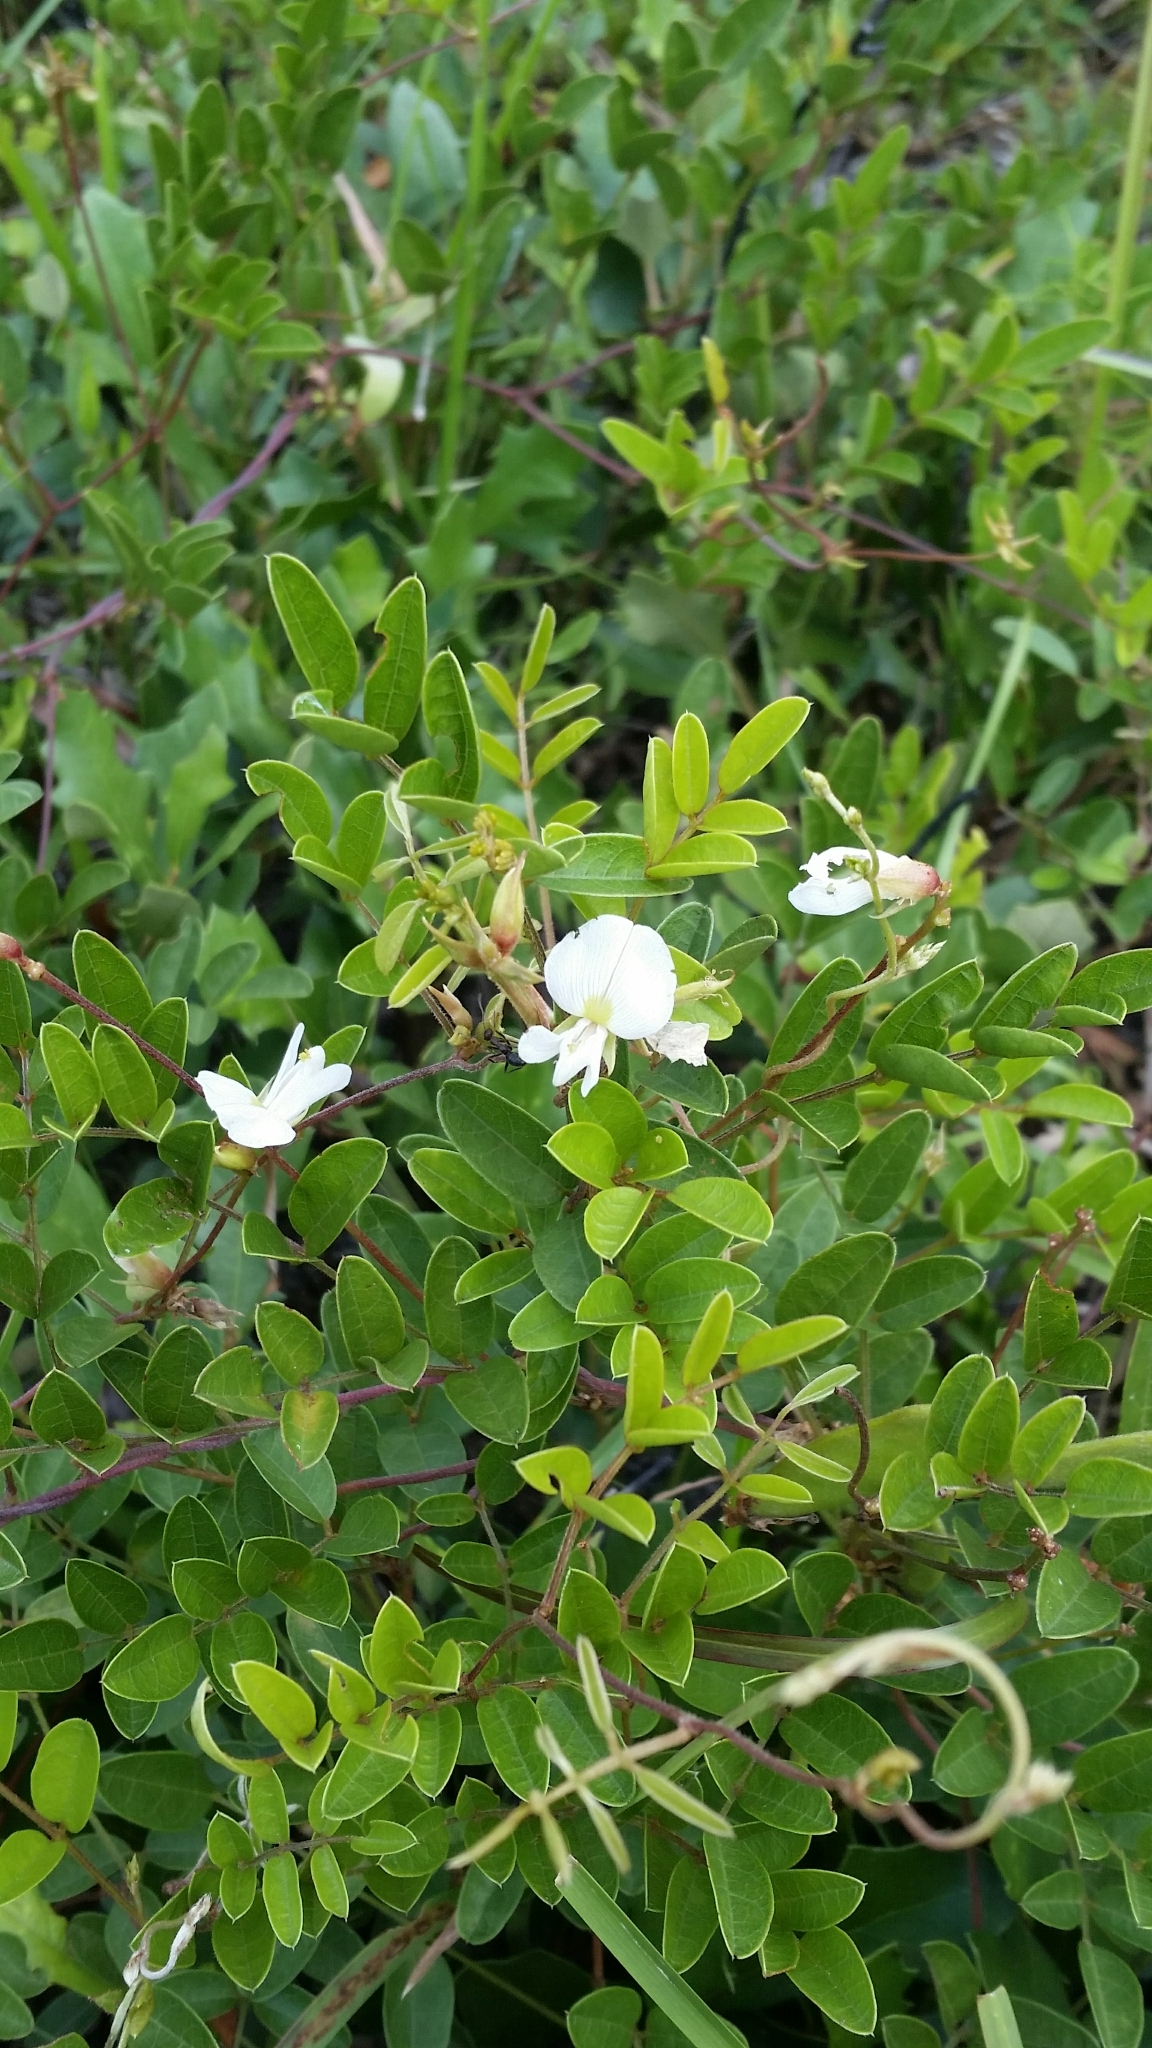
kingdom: Plantae
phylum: Tracheophyta
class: Magnoliopsida
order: Fabales
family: Fabaceae
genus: Galactia
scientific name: Galactia elliottii
